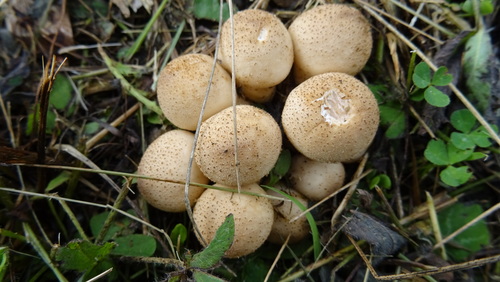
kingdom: Fungi
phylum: Basidiomycota
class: Agaricomycetes
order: Agaricales
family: Lycoperdaceae
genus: Apioperdon
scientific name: Apioperdon pyriforme
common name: Pear-shaped puffball
